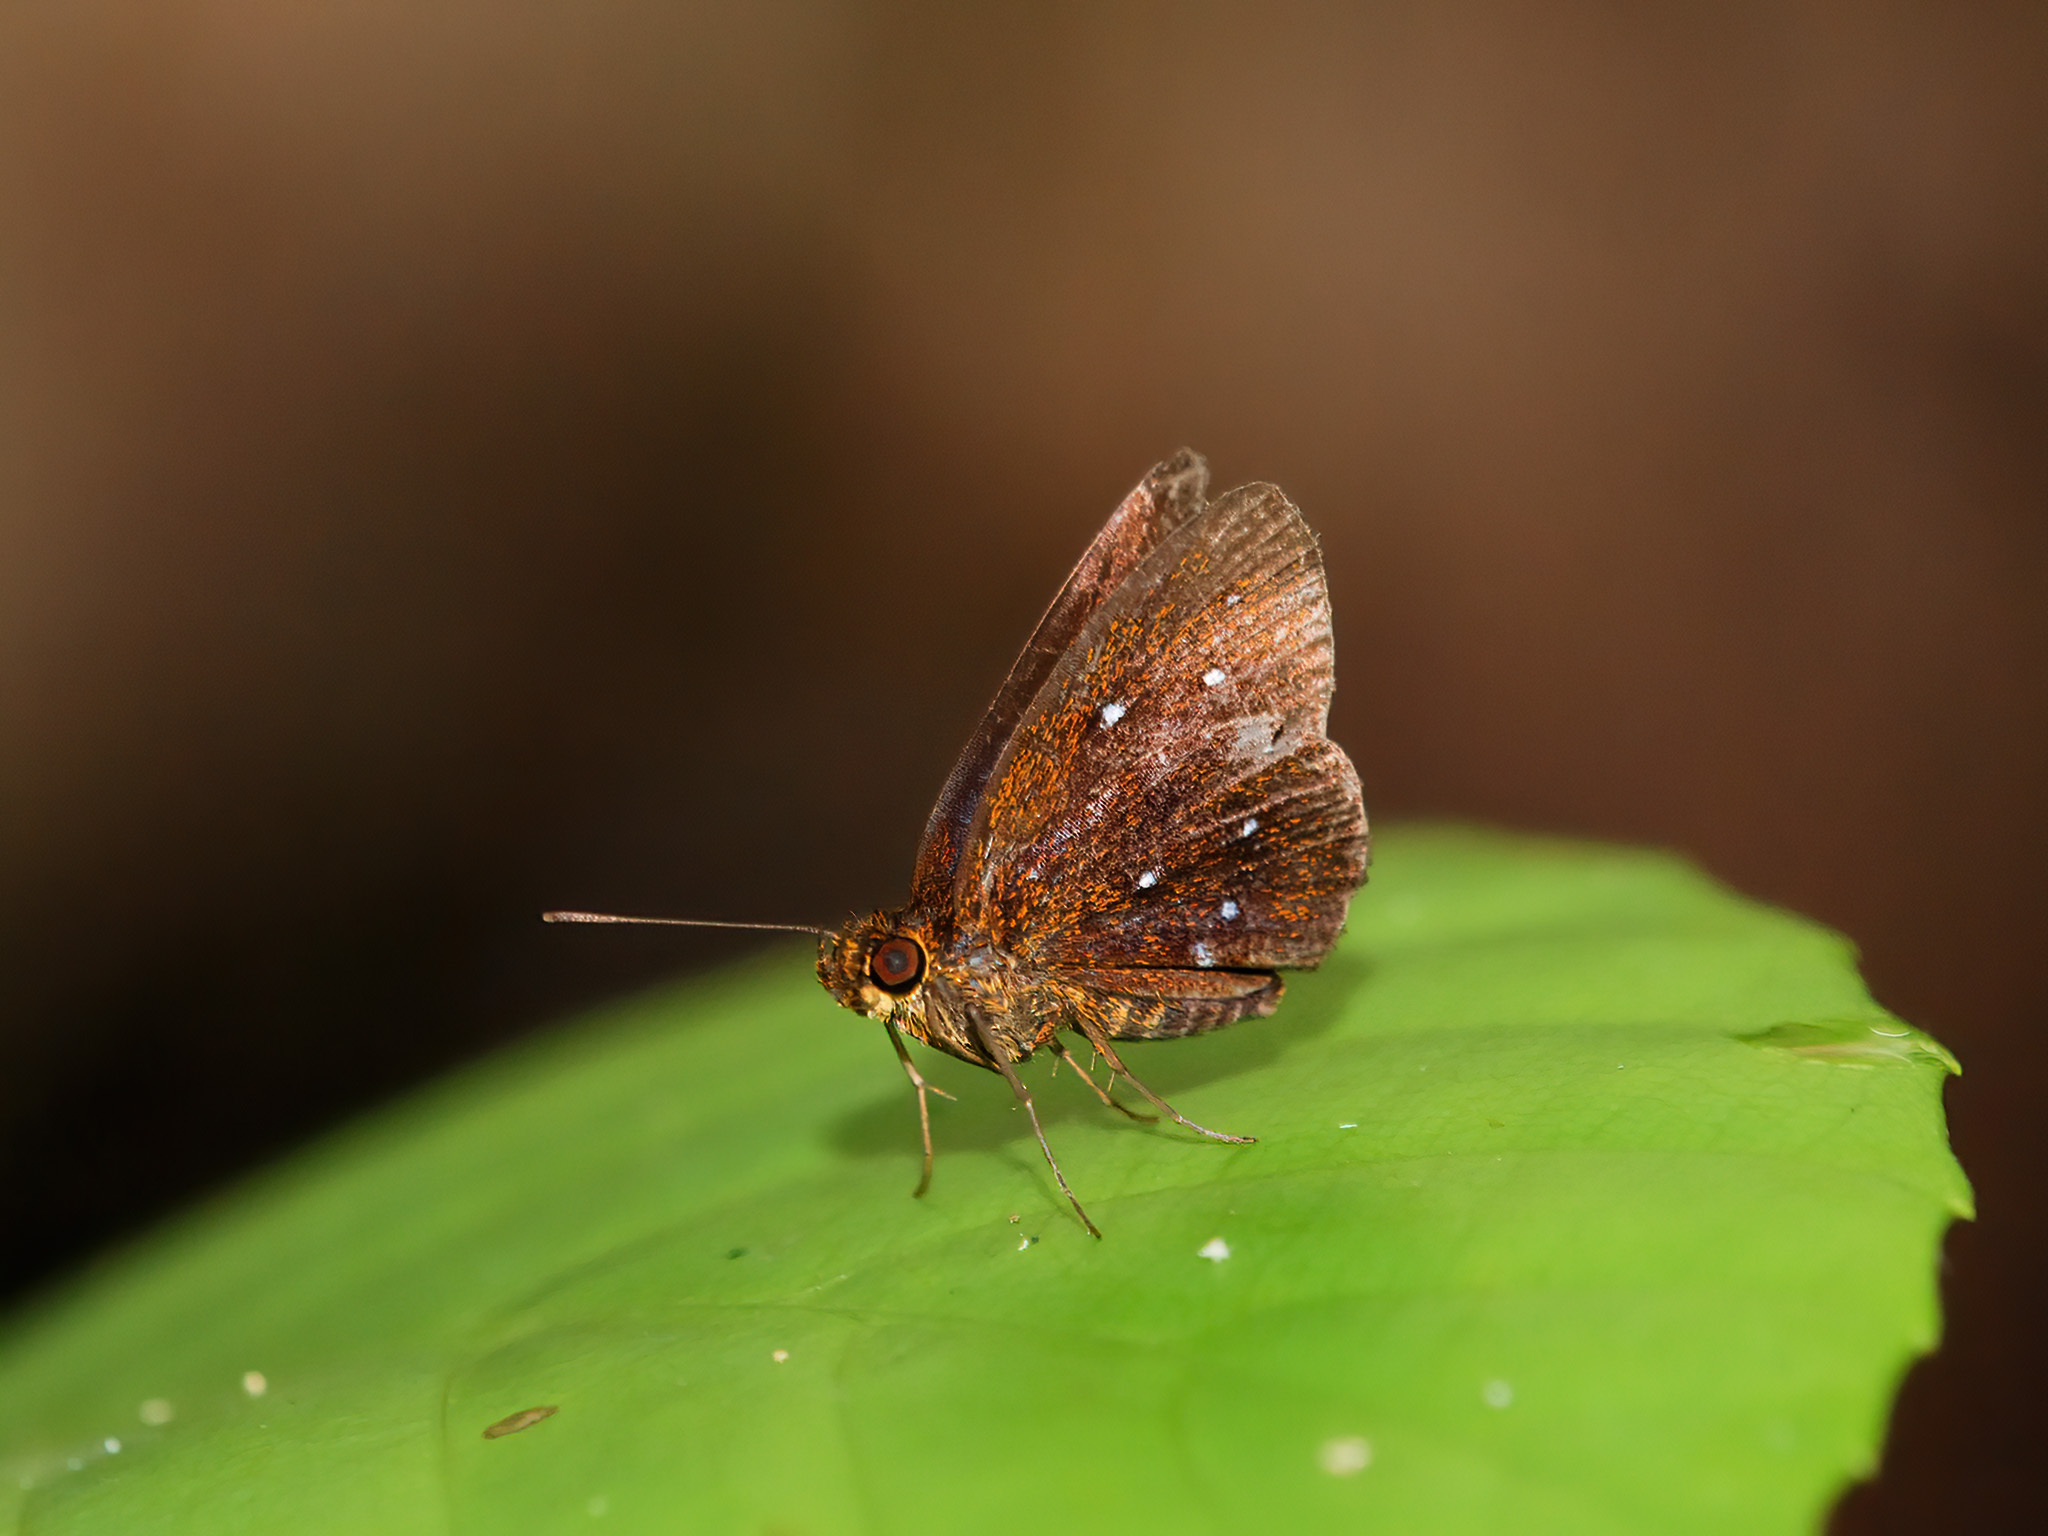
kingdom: Animalia
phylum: Arthropoda
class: Insecta
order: Lepidoptera
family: Hesperiidae
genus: Iambrix
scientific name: Iambrix stellifer
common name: Starry bob
